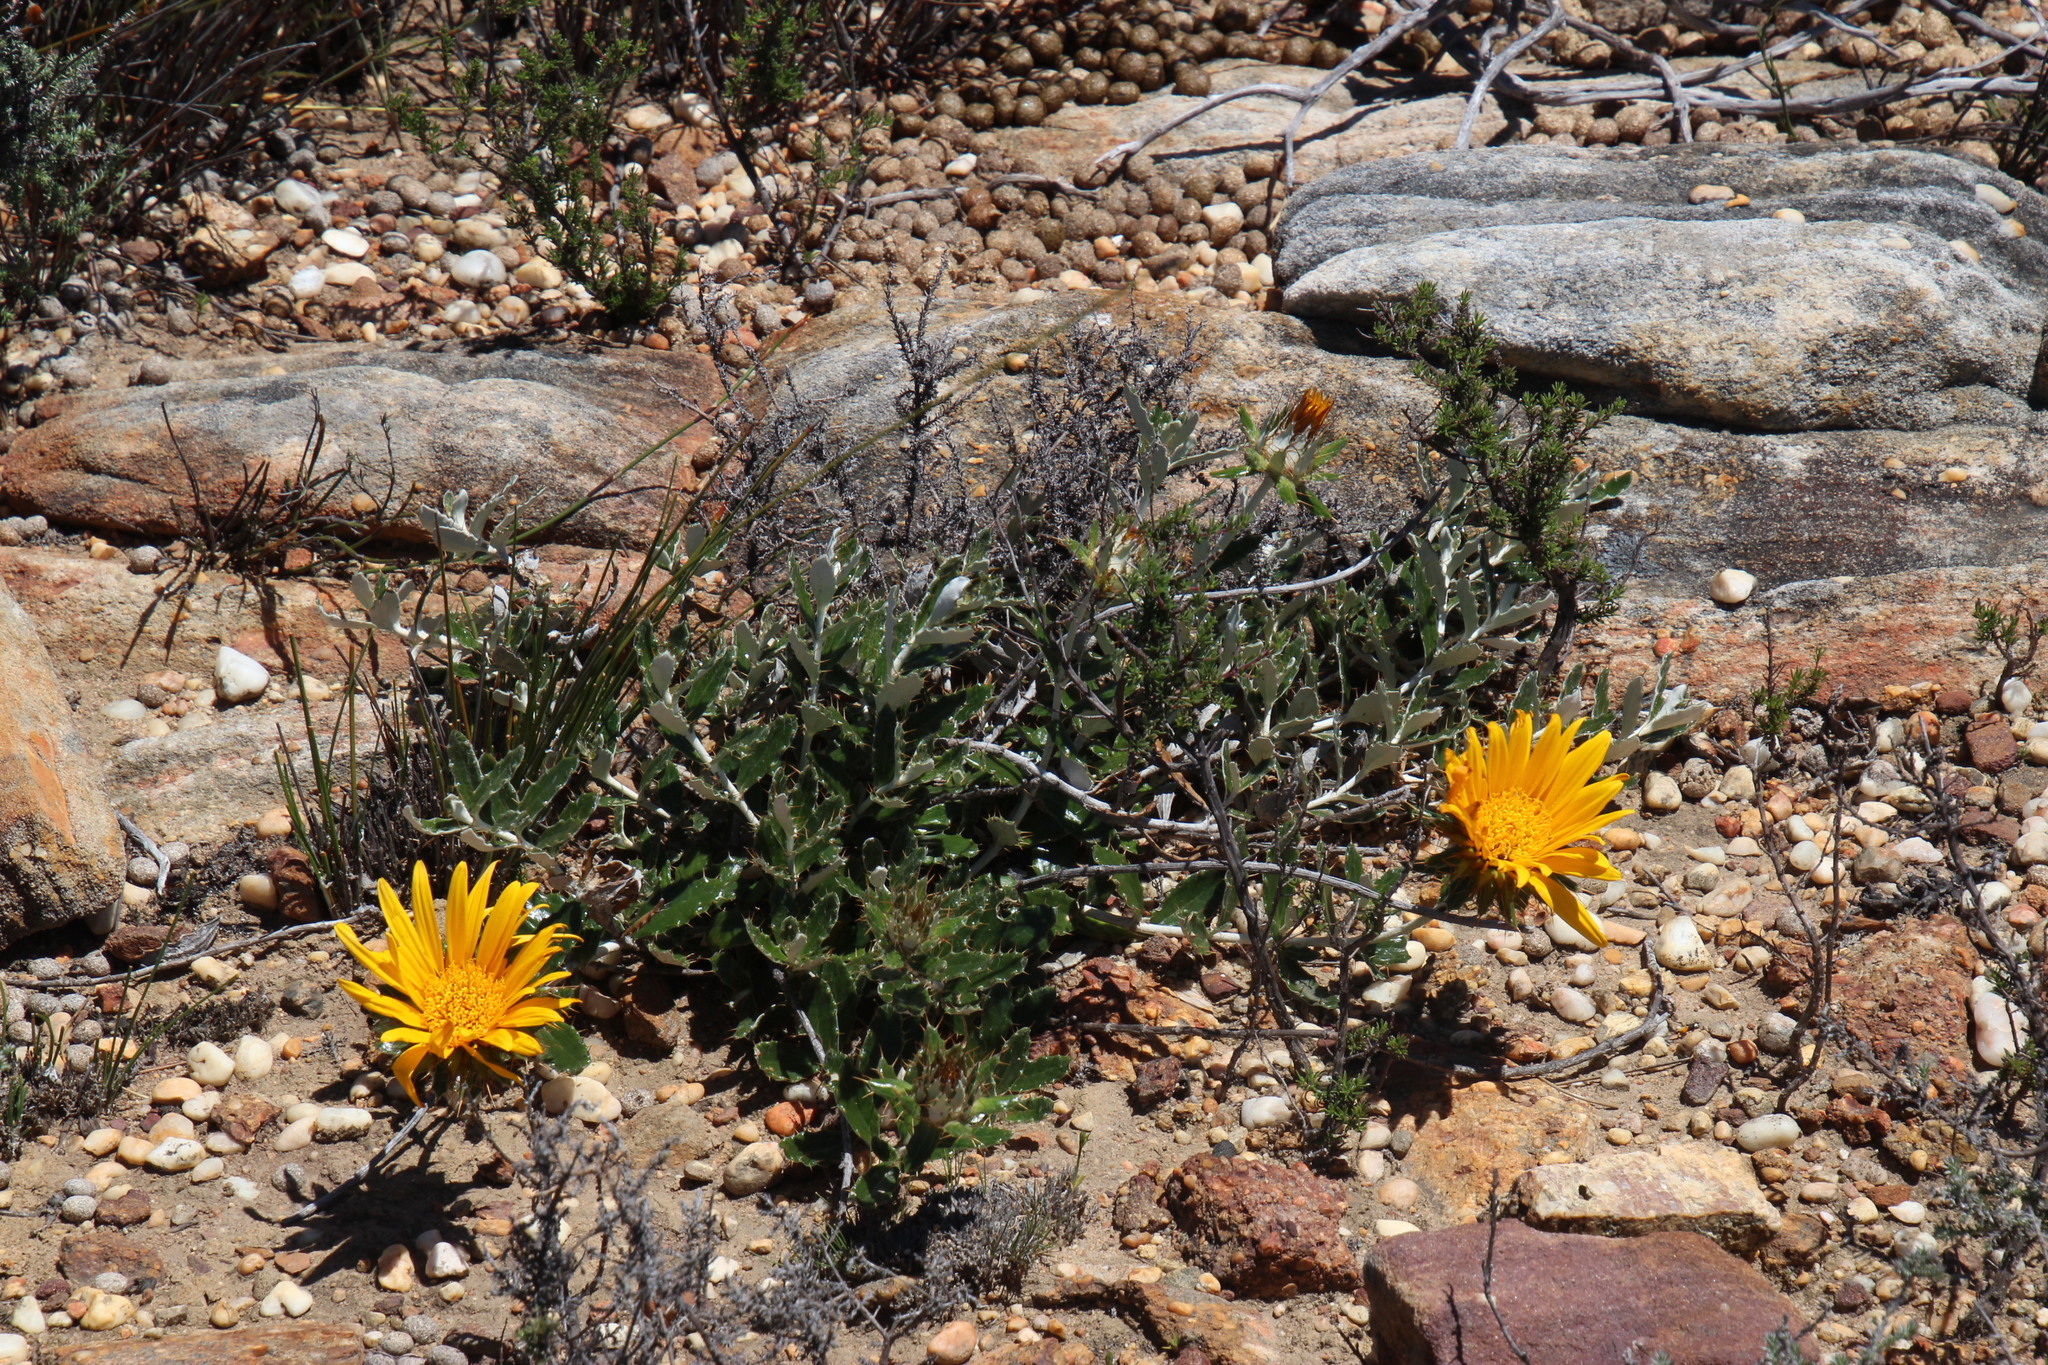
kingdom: Plantae
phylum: Tracheophyta
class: Magnoliopsida
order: Asterales
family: Asteraceae
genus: Berkheya
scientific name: Berkheya barbata
